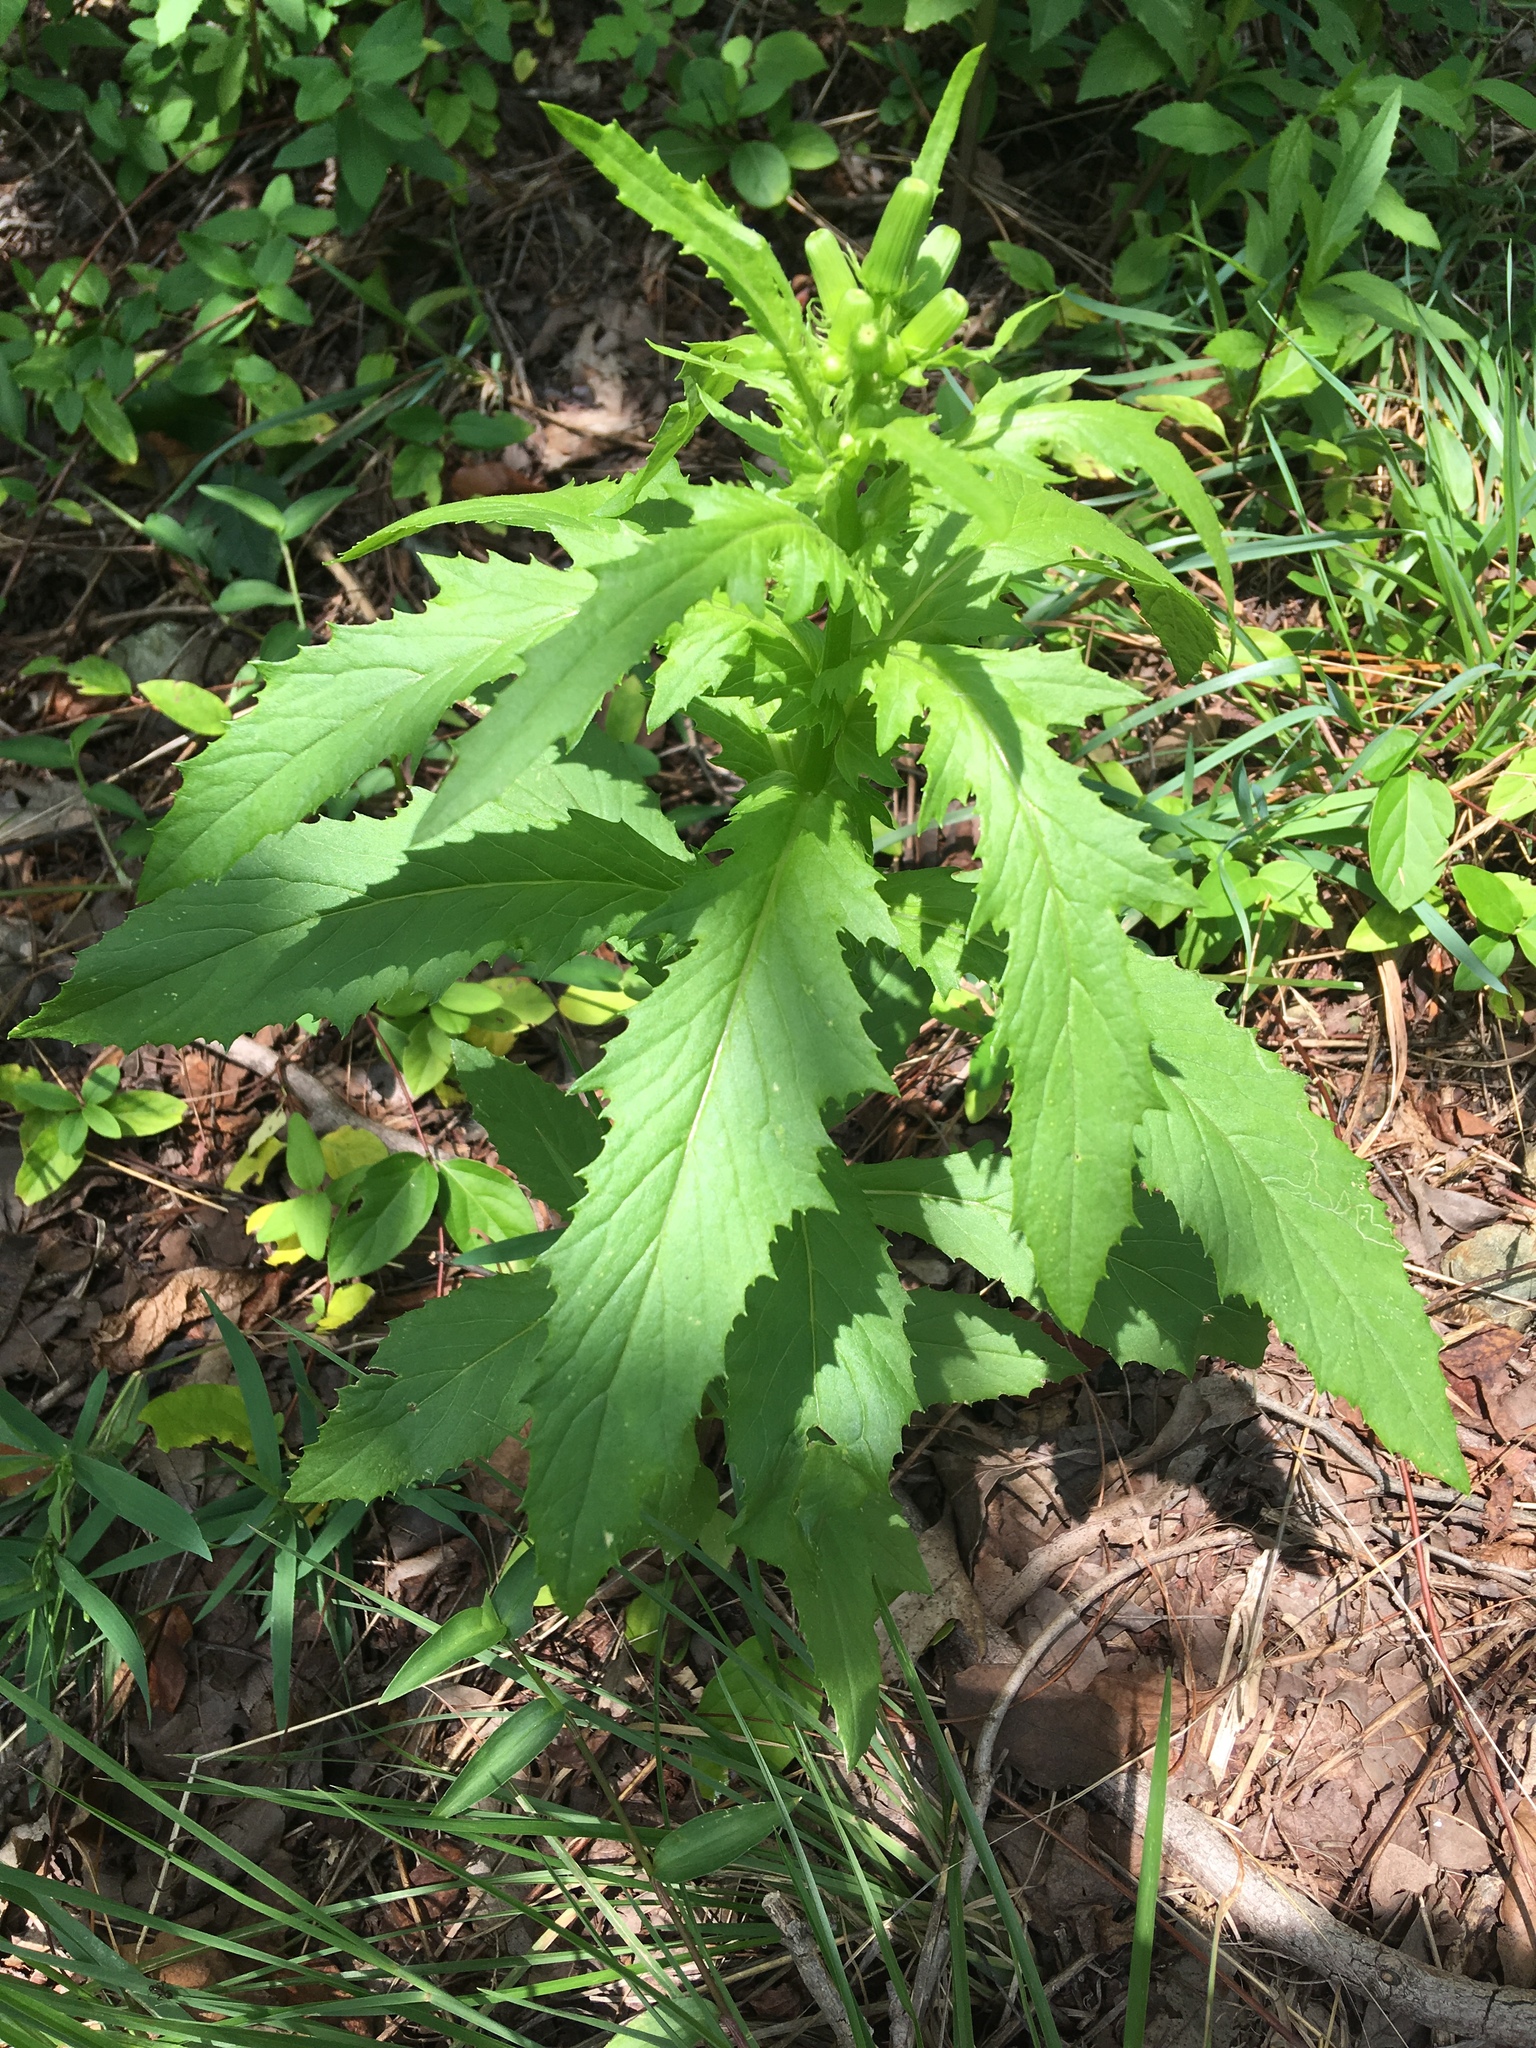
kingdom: Plantae
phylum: Tracheophyta
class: Magnoliopsida
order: Asterales
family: Asteraceae
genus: Erechtites
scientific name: Erechtites hieraciifolius
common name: American burnweed
